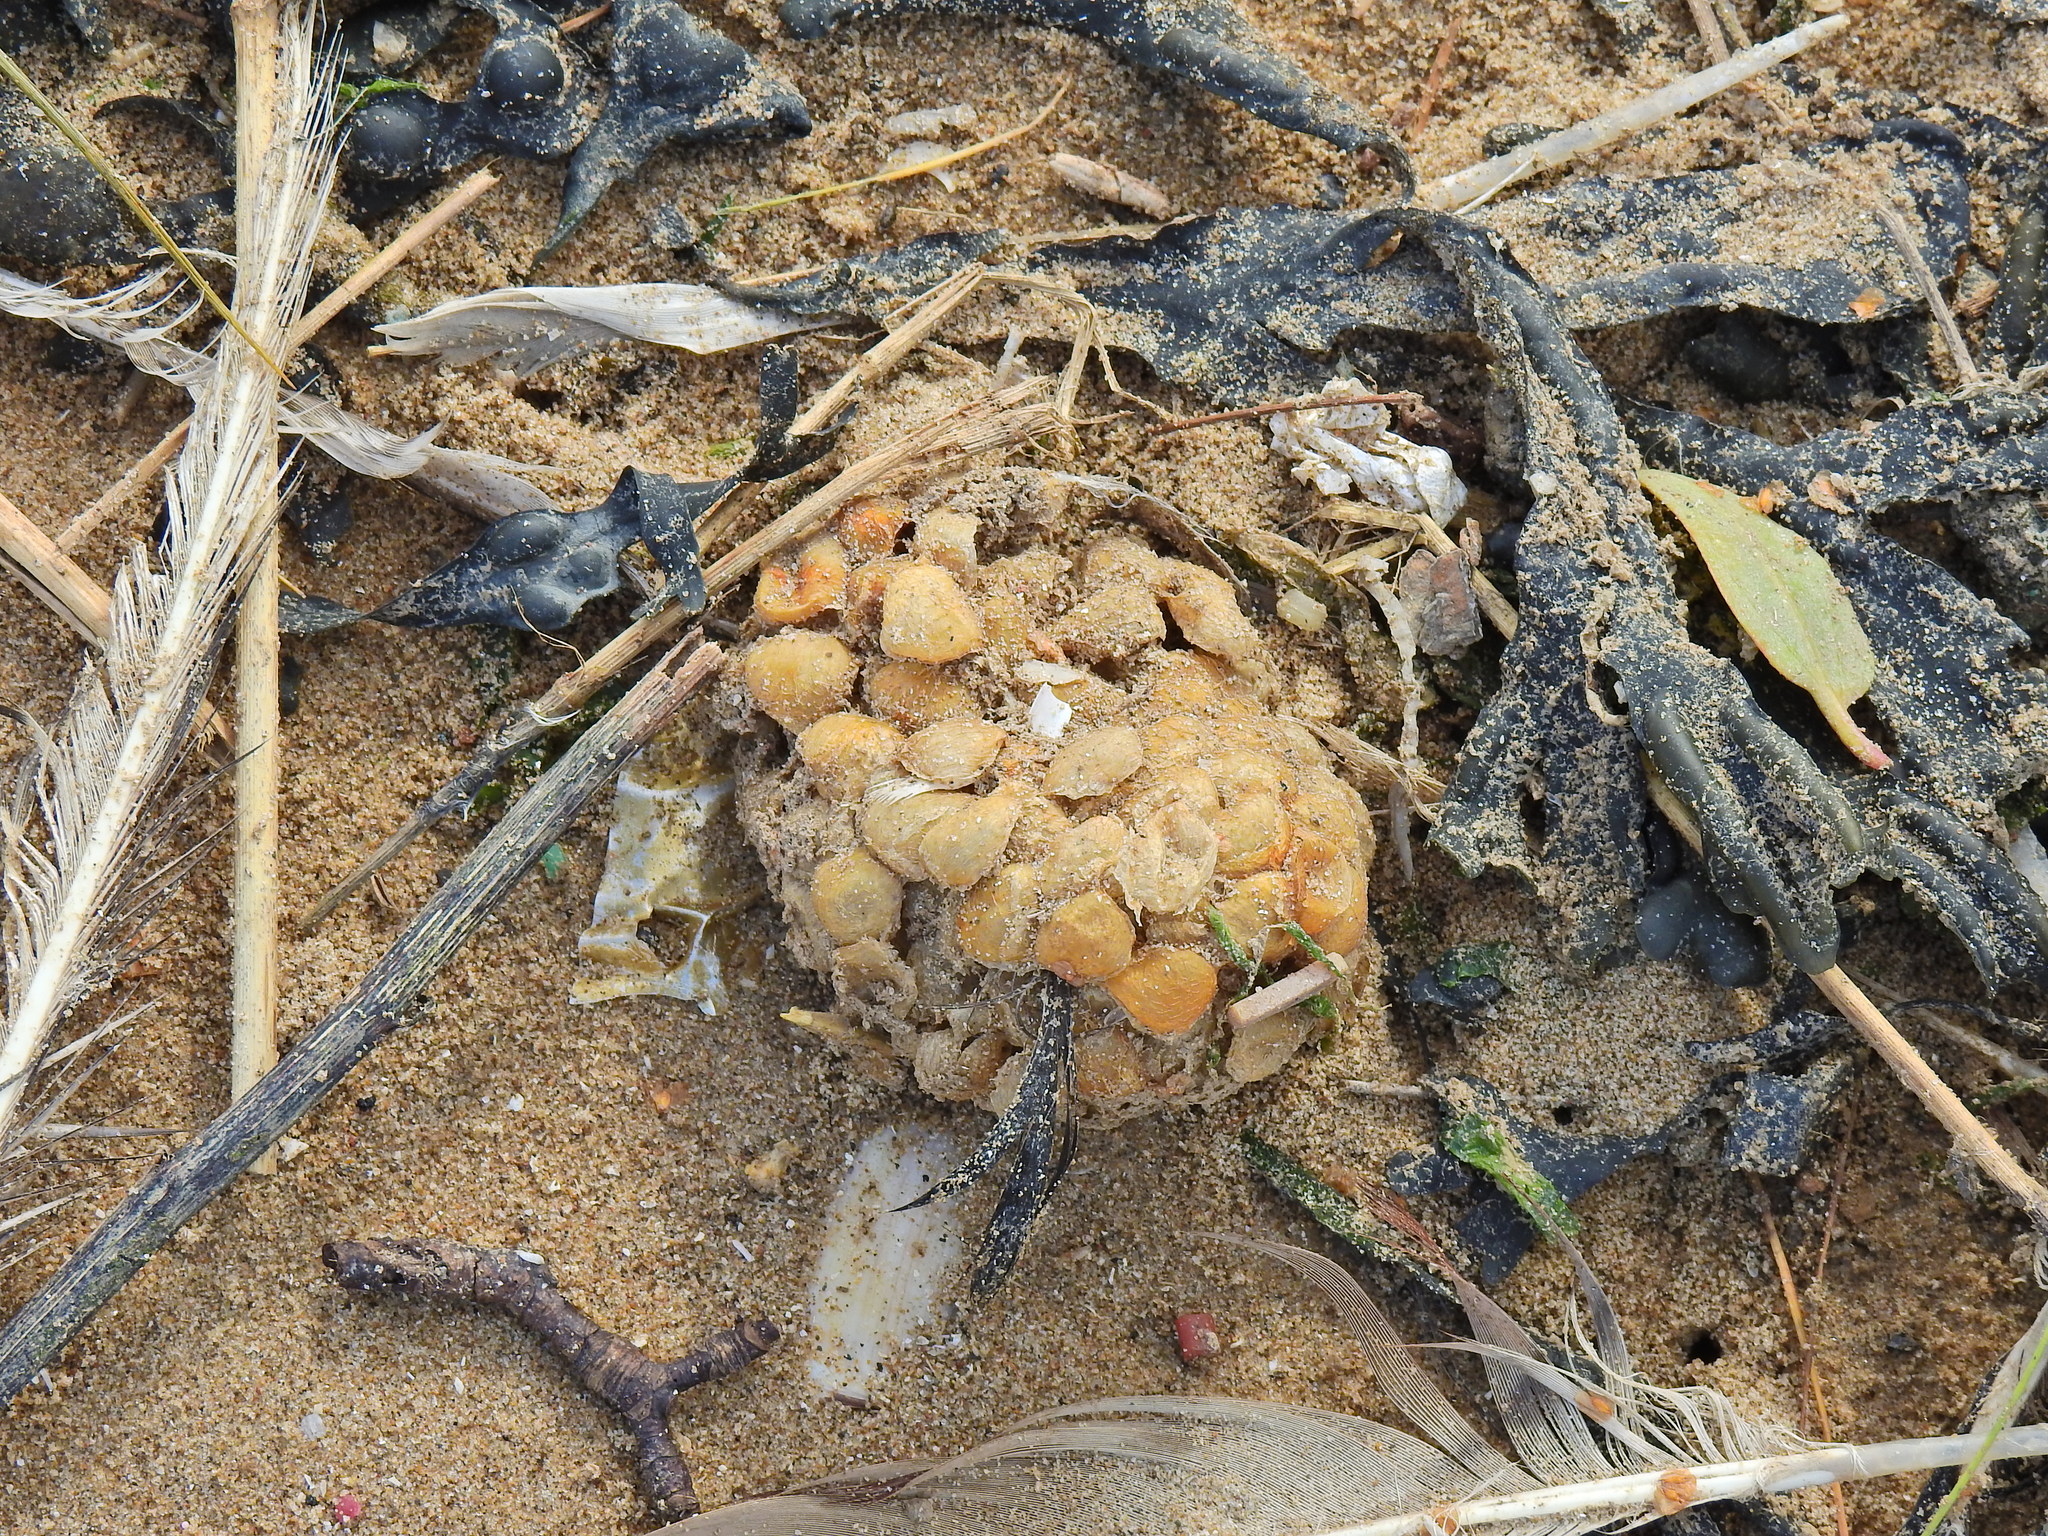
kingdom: Animalia
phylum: Mollusca
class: Gastropoda
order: Neogastropoda
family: Buccinidae
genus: Buccinum
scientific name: Buccinum undatum
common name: Common whelk
